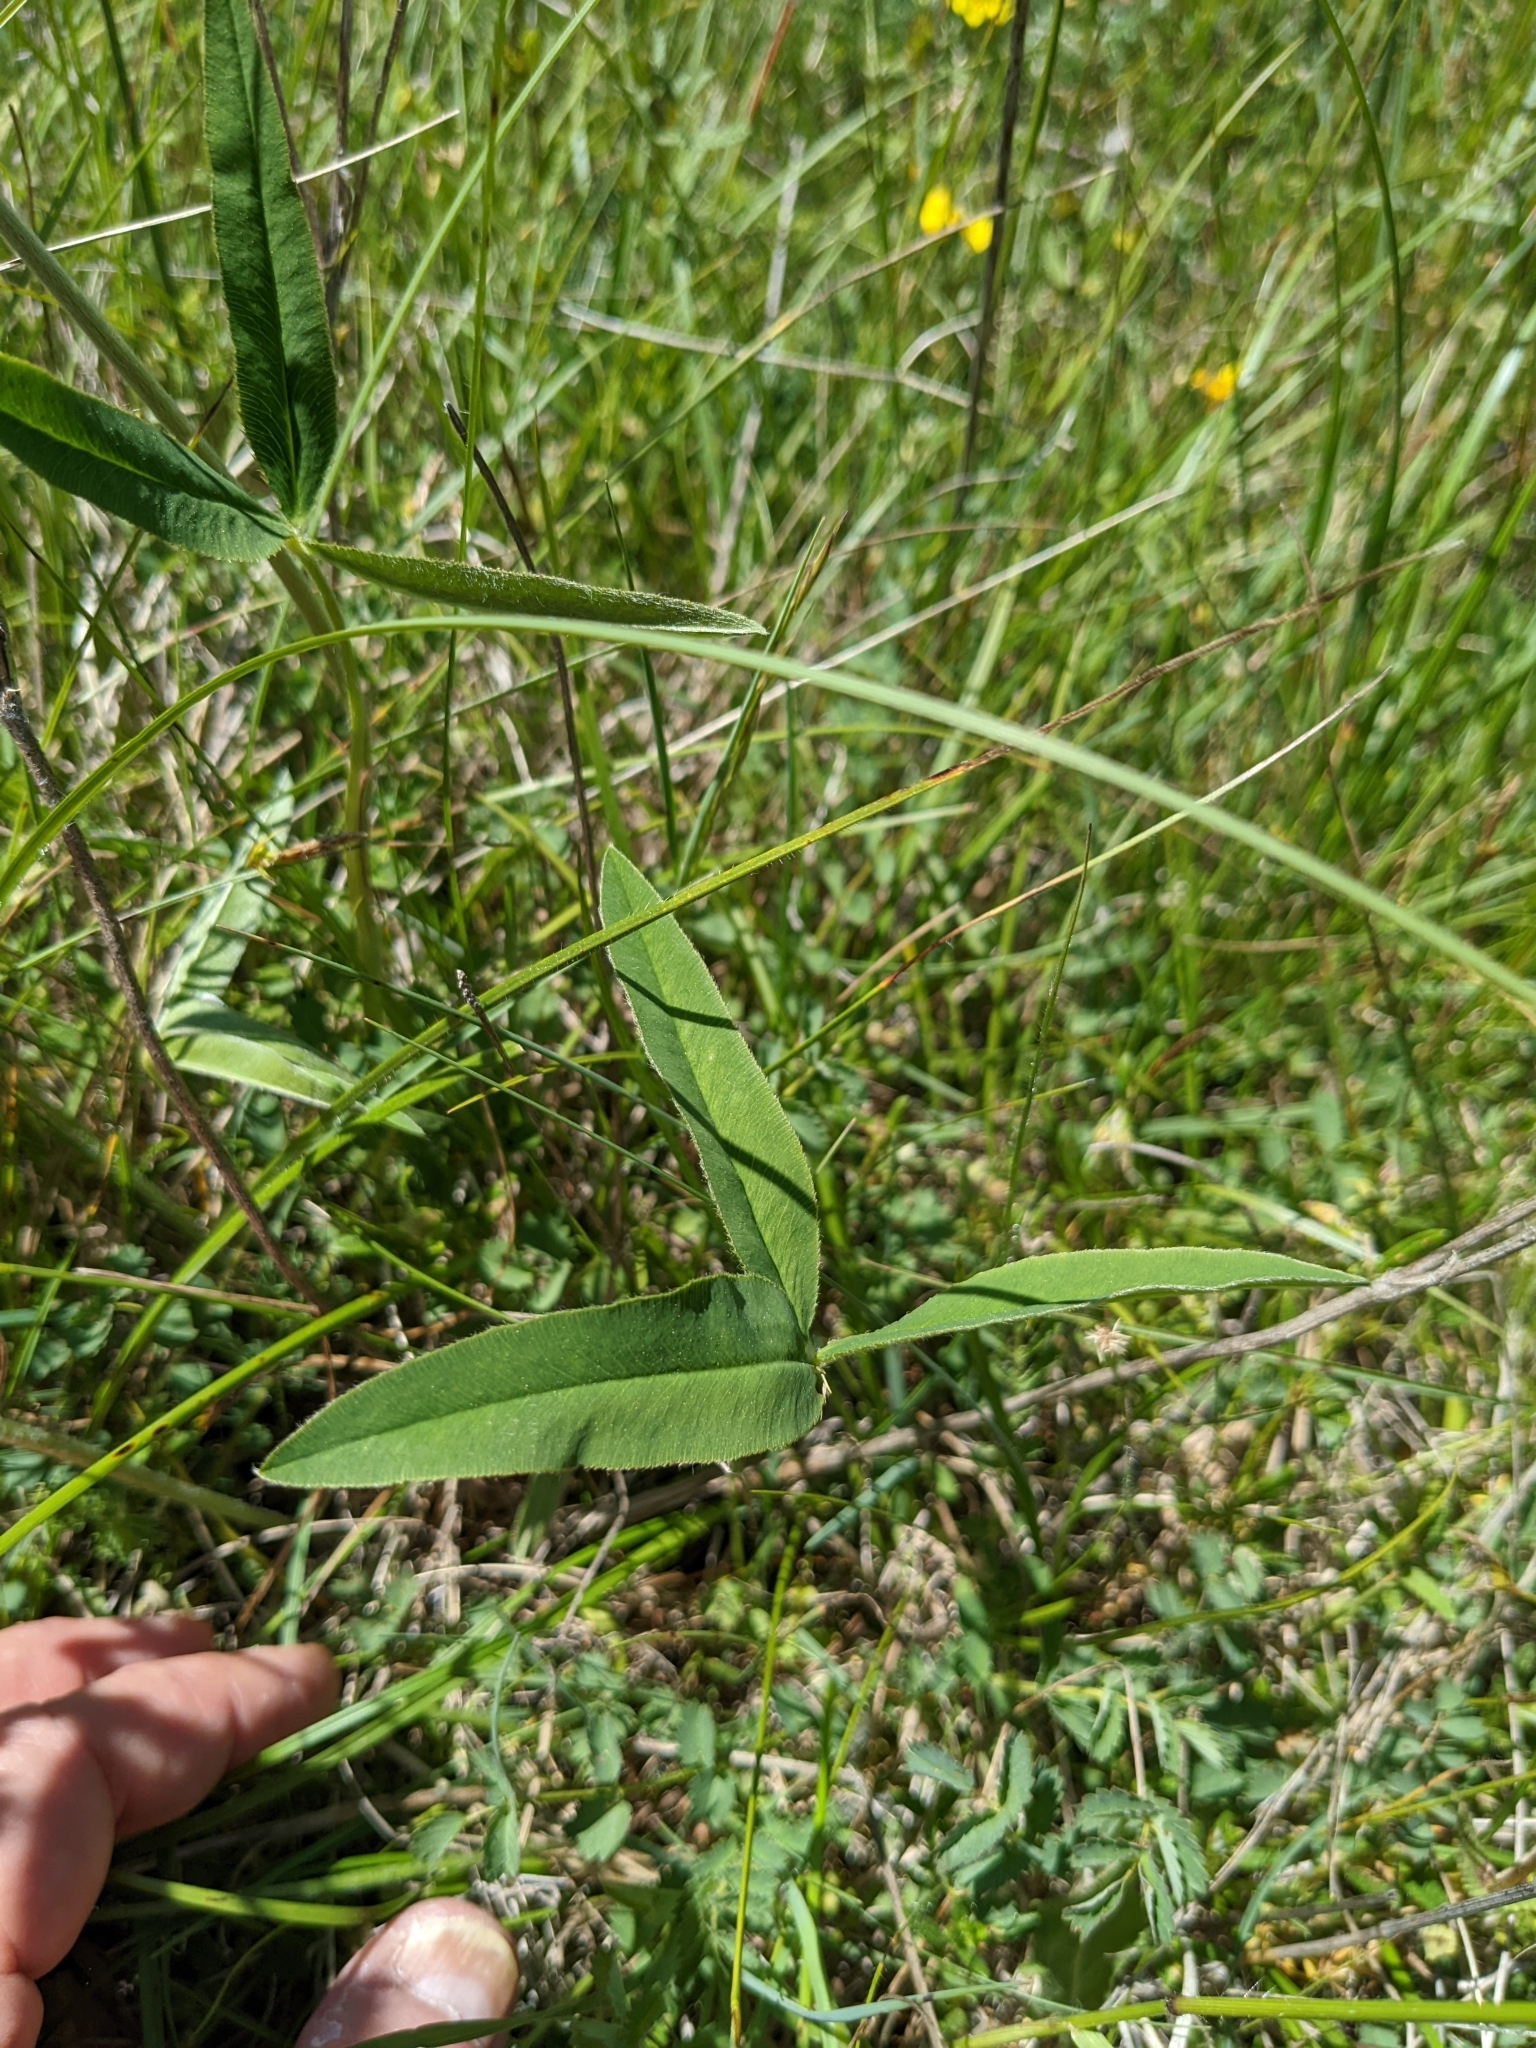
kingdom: Plantae
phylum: Tracheophyta
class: Magnoliopsida
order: Fabales
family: Fabaceae
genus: Trifolium
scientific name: Trifolium montanum
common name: Mountain clover
